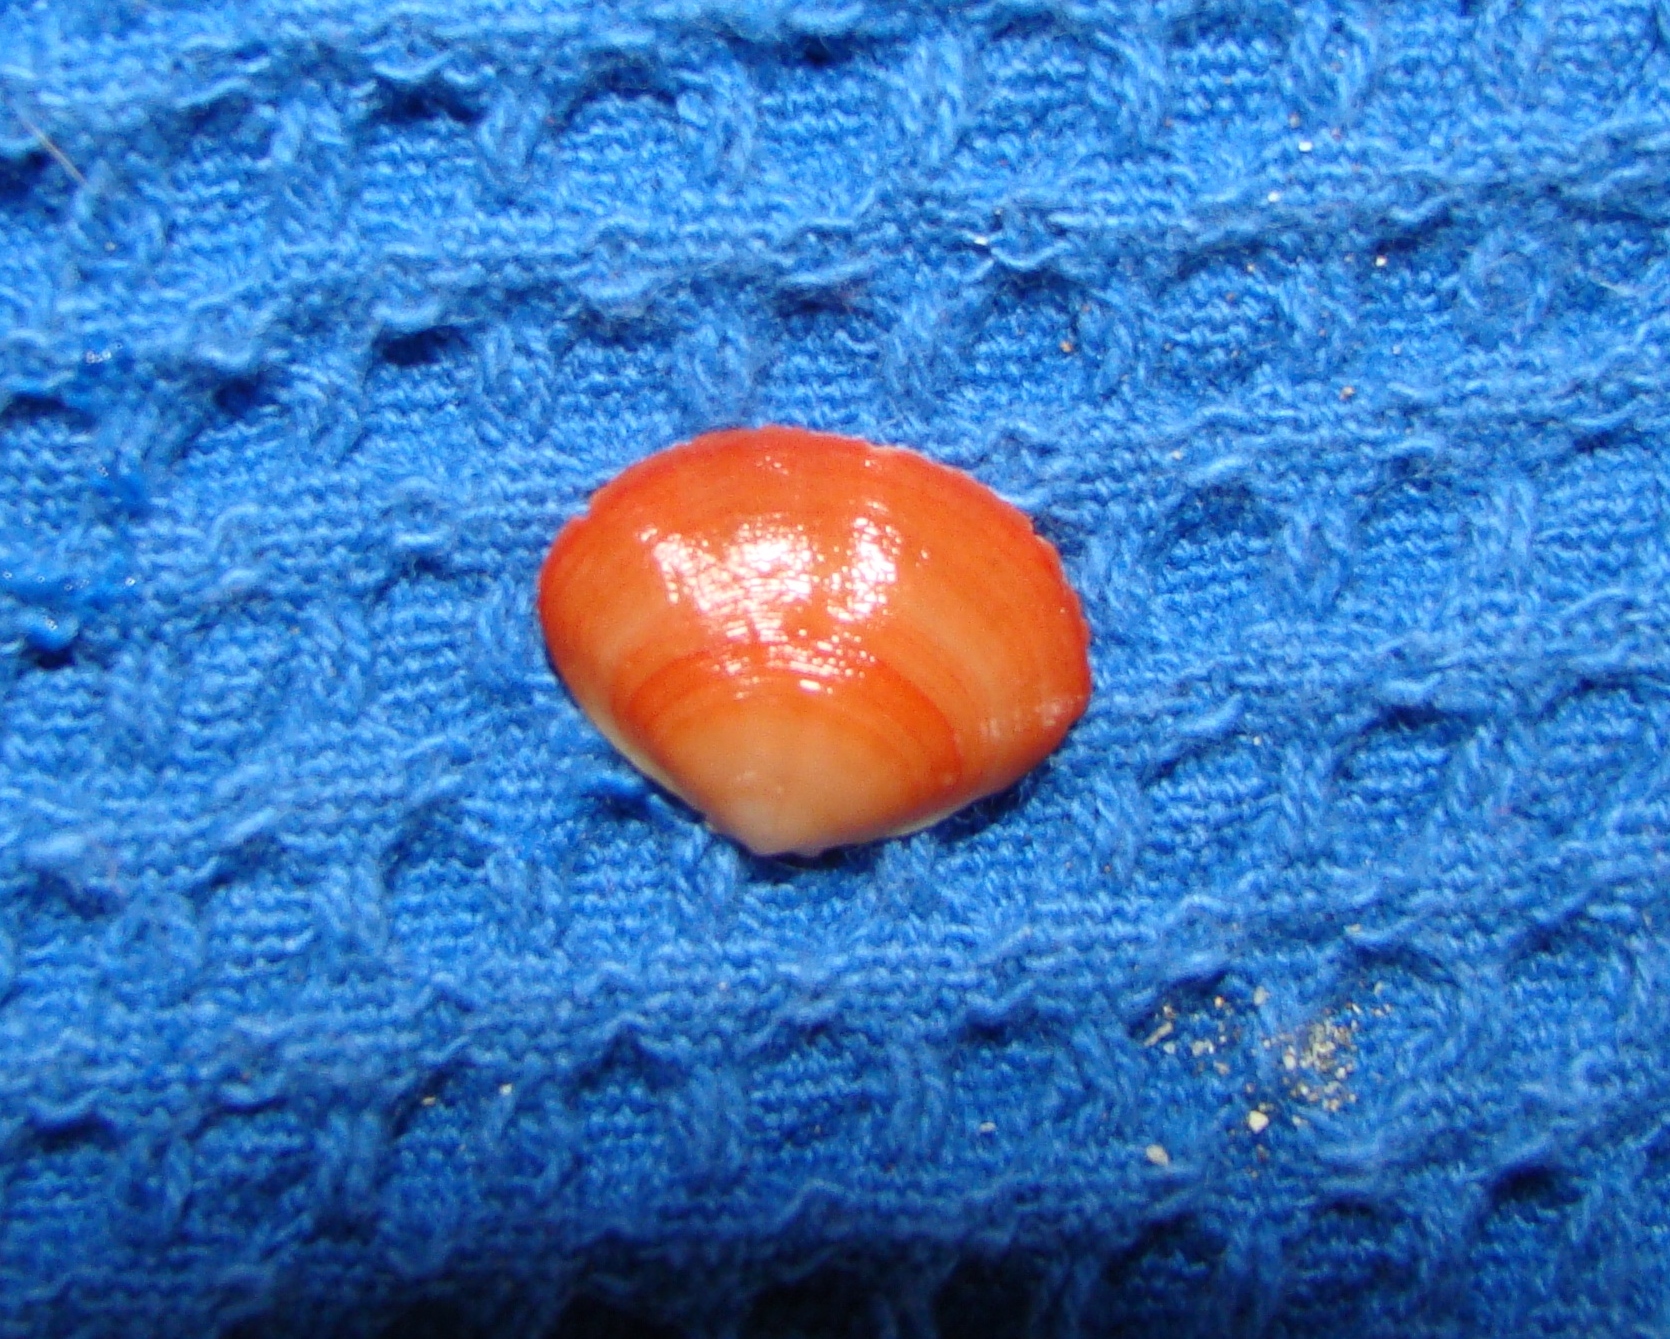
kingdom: Animalia
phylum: Brachiopoda
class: Rhynchonellata
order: Terebratulida
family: Terebratellidae
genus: Calloria
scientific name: Calloria inconspicua
